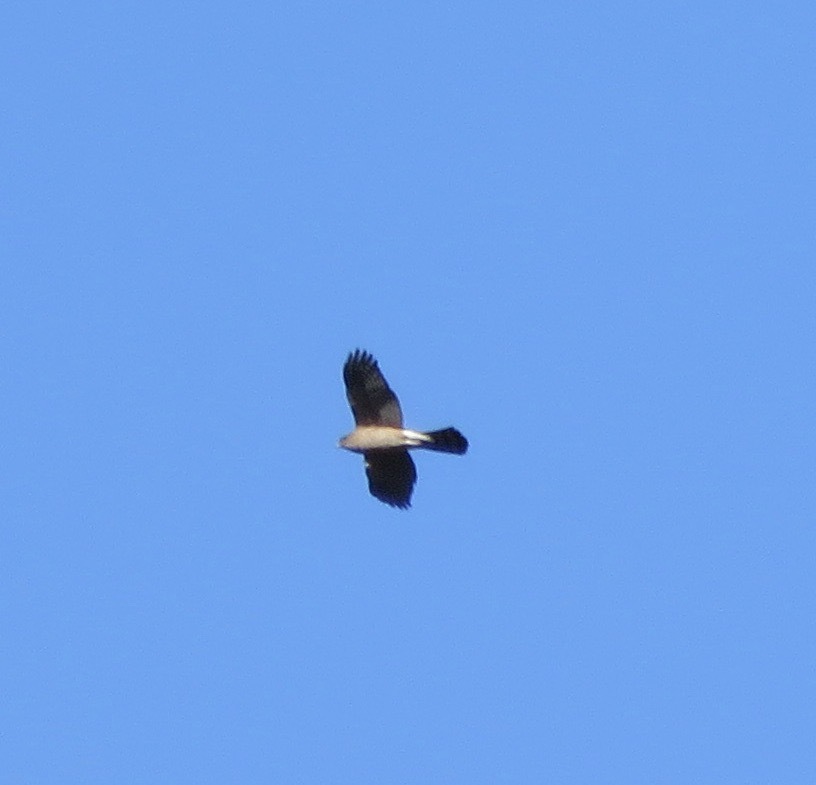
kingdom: Animalia
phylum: Chordata
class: Aves
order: Accipitriformes
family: Accipitridae
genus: Accipiter
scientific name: Accipiter cooperii
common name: Cooper's hawk
